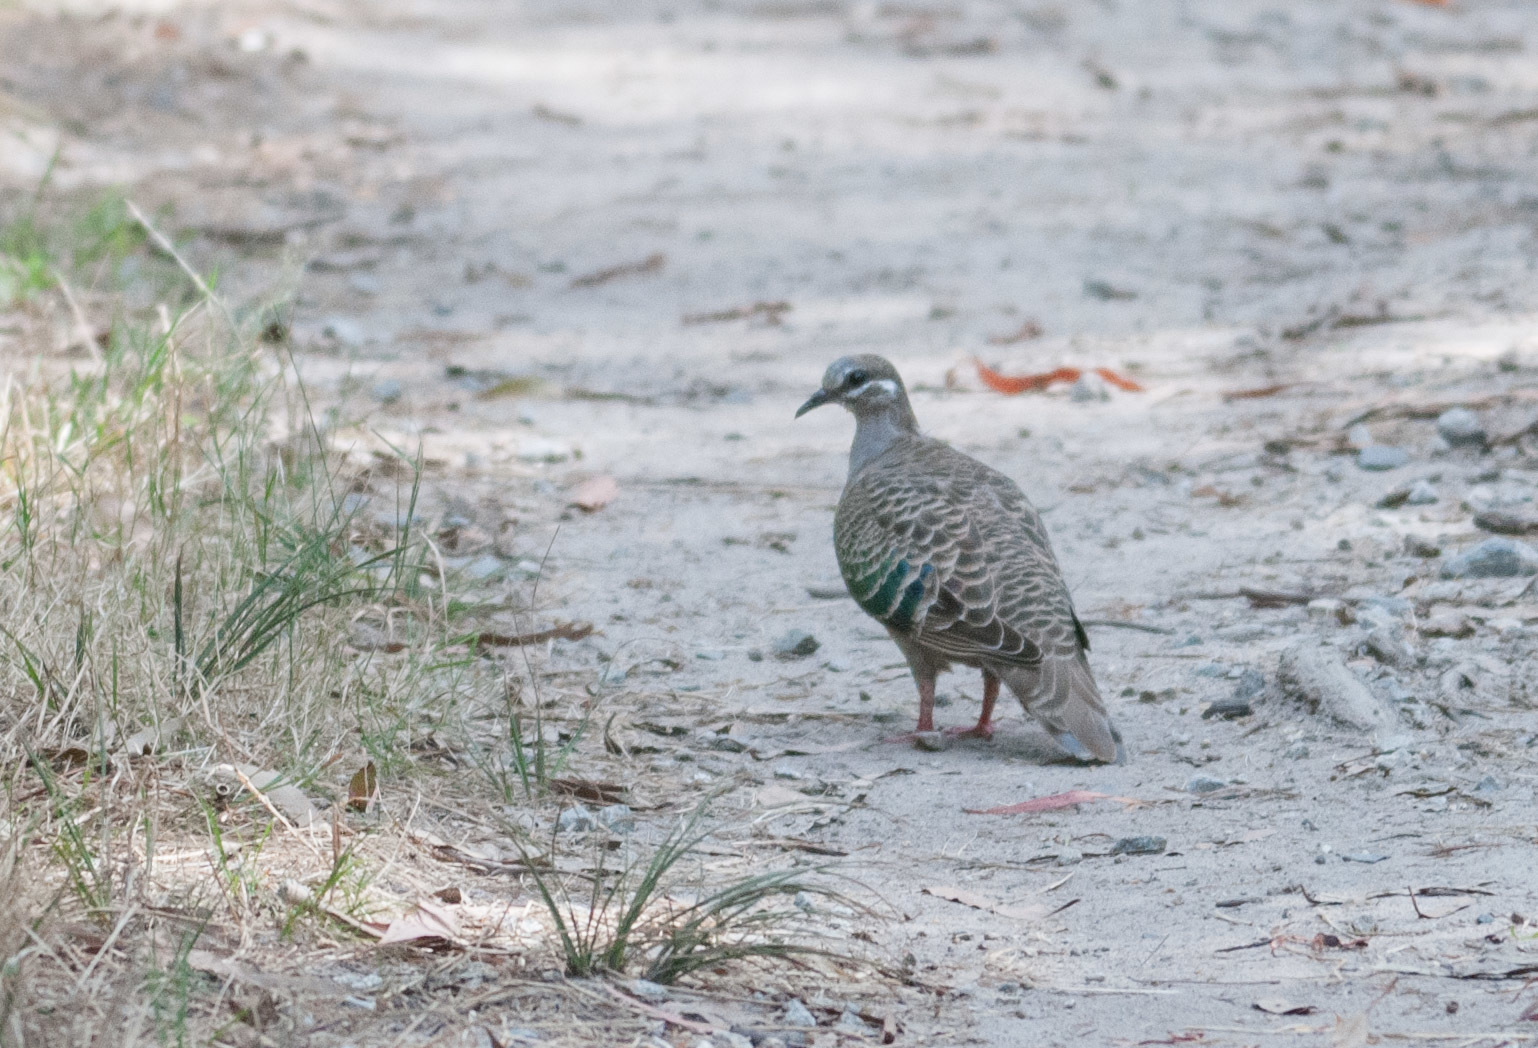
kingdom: Animalia
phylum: Chordata
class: Aves
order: Columbiformes
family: Columbidae
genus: Phaps
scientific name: Phaps chalcoptera
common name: Common bronzewing
